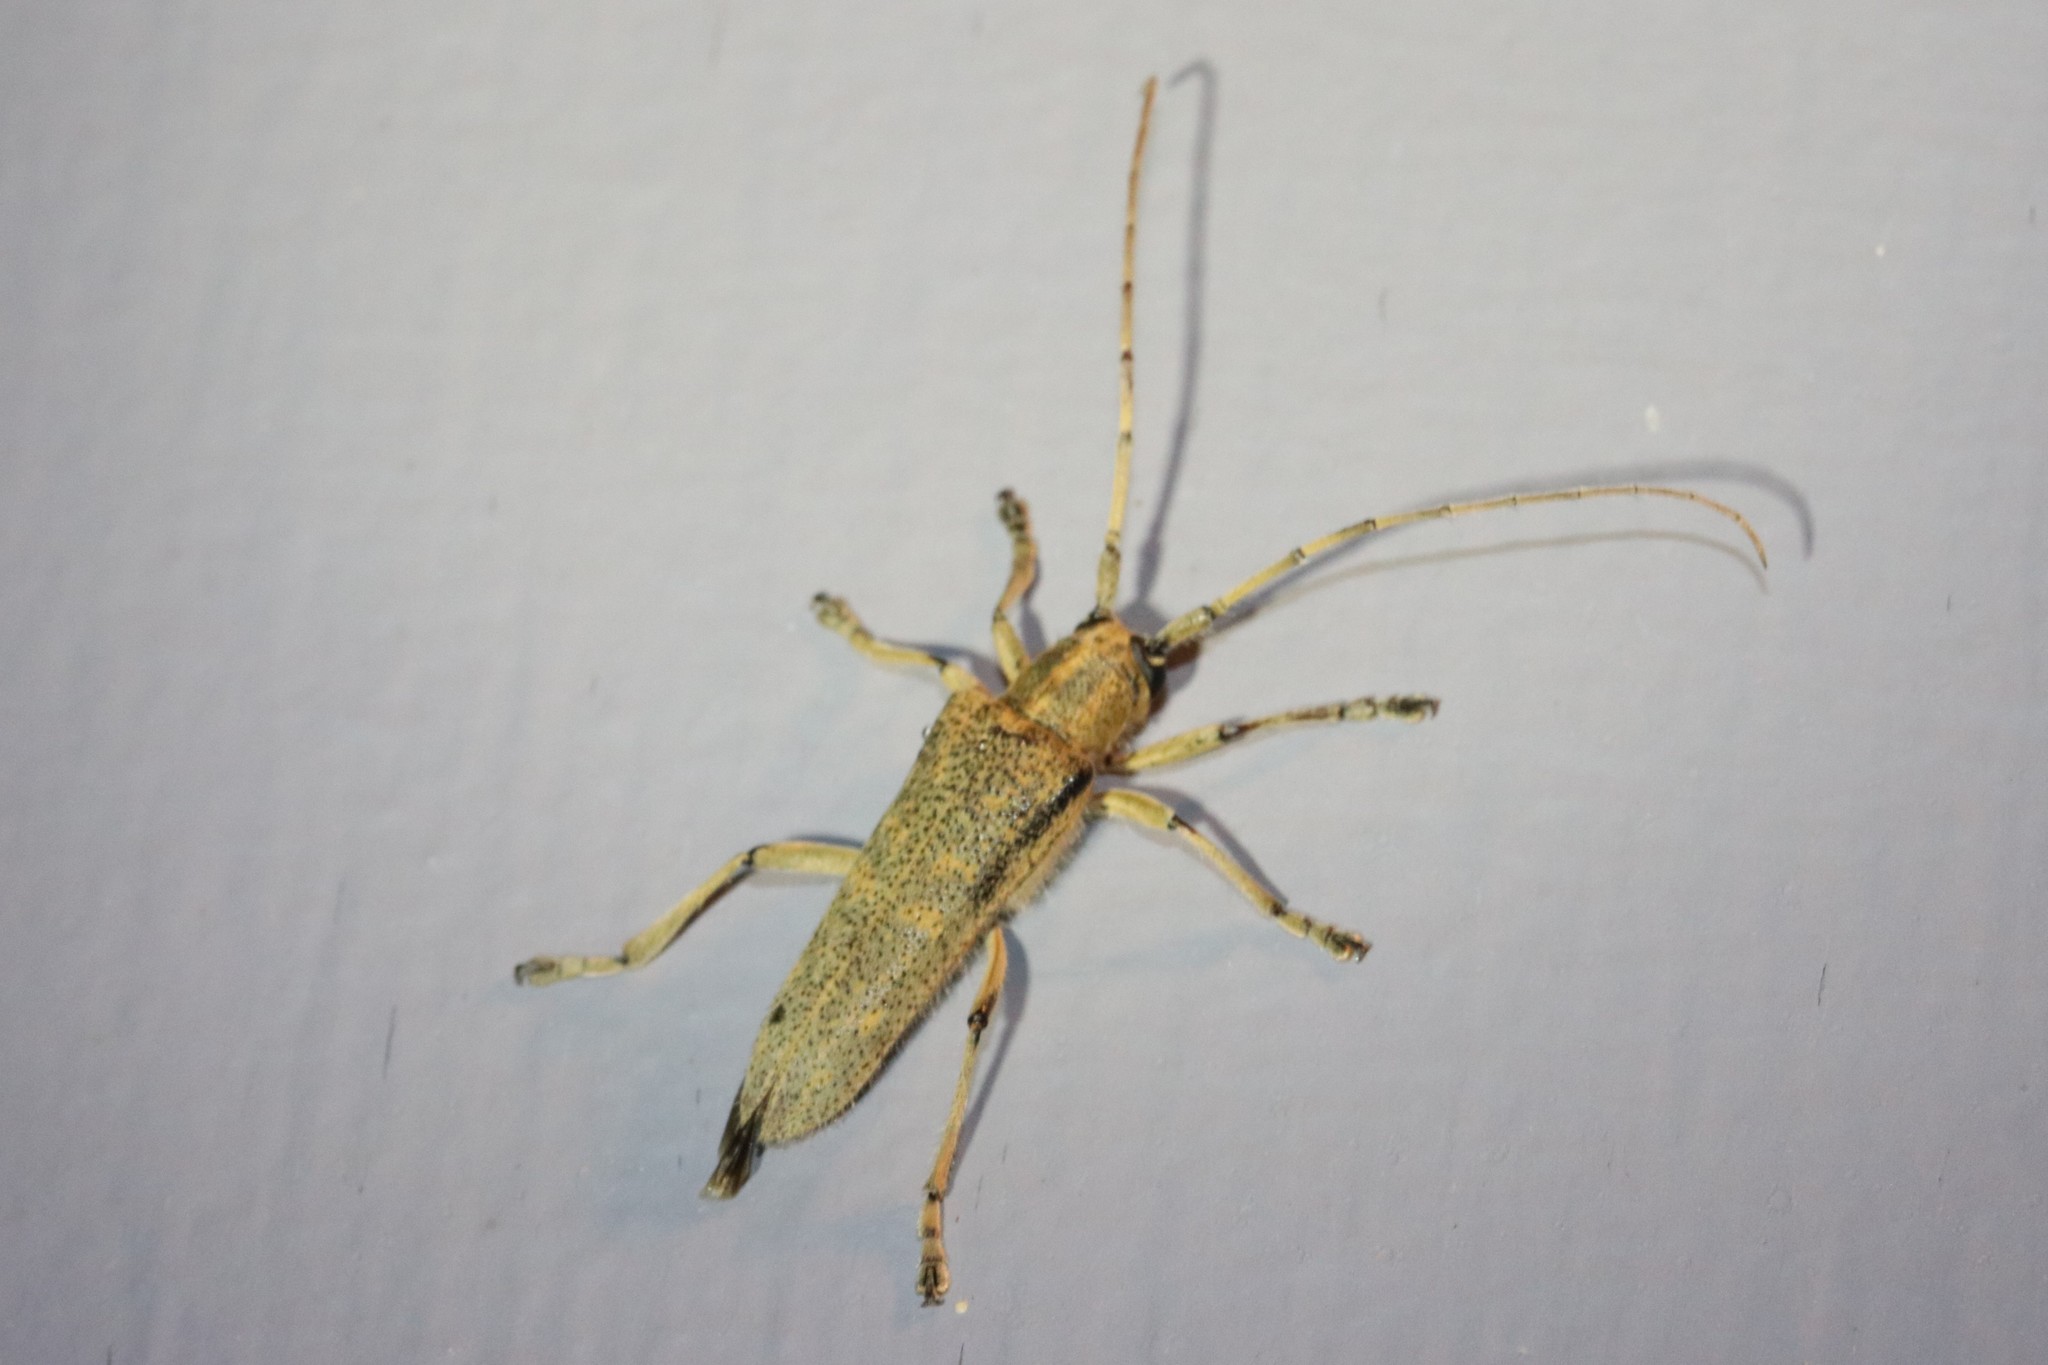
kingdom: Animalia
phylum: Arthropoda
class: Insecta
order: Coleoptera
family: Cerambycidae
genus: Saperda
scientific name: Saperda calcarata
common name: Poplar borer
